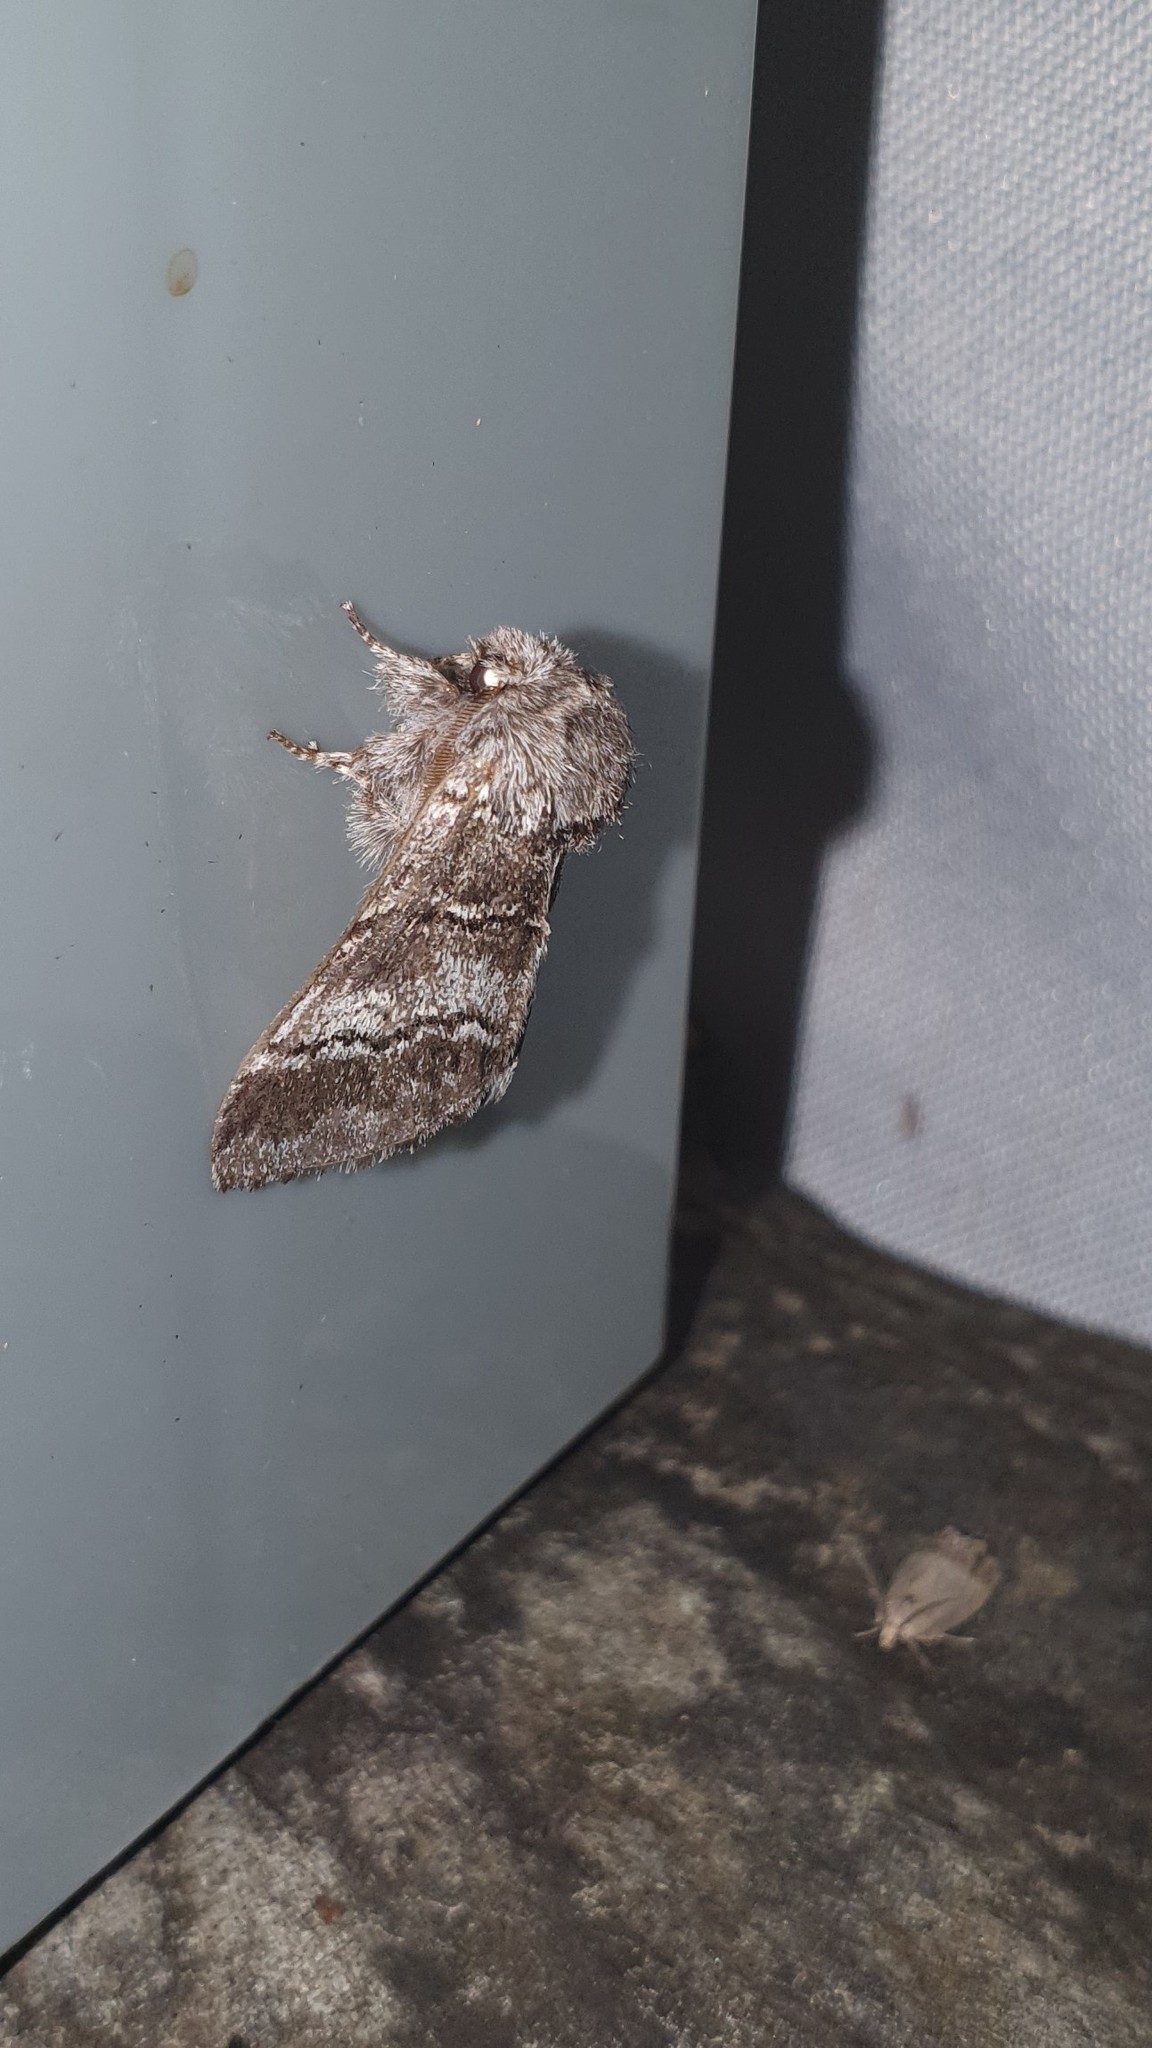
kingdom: Animalia
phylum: Arthropoda
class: Insecta
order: Lepidoptera
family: Notodontidae
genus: Drymonia
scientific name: Drymonia querna
